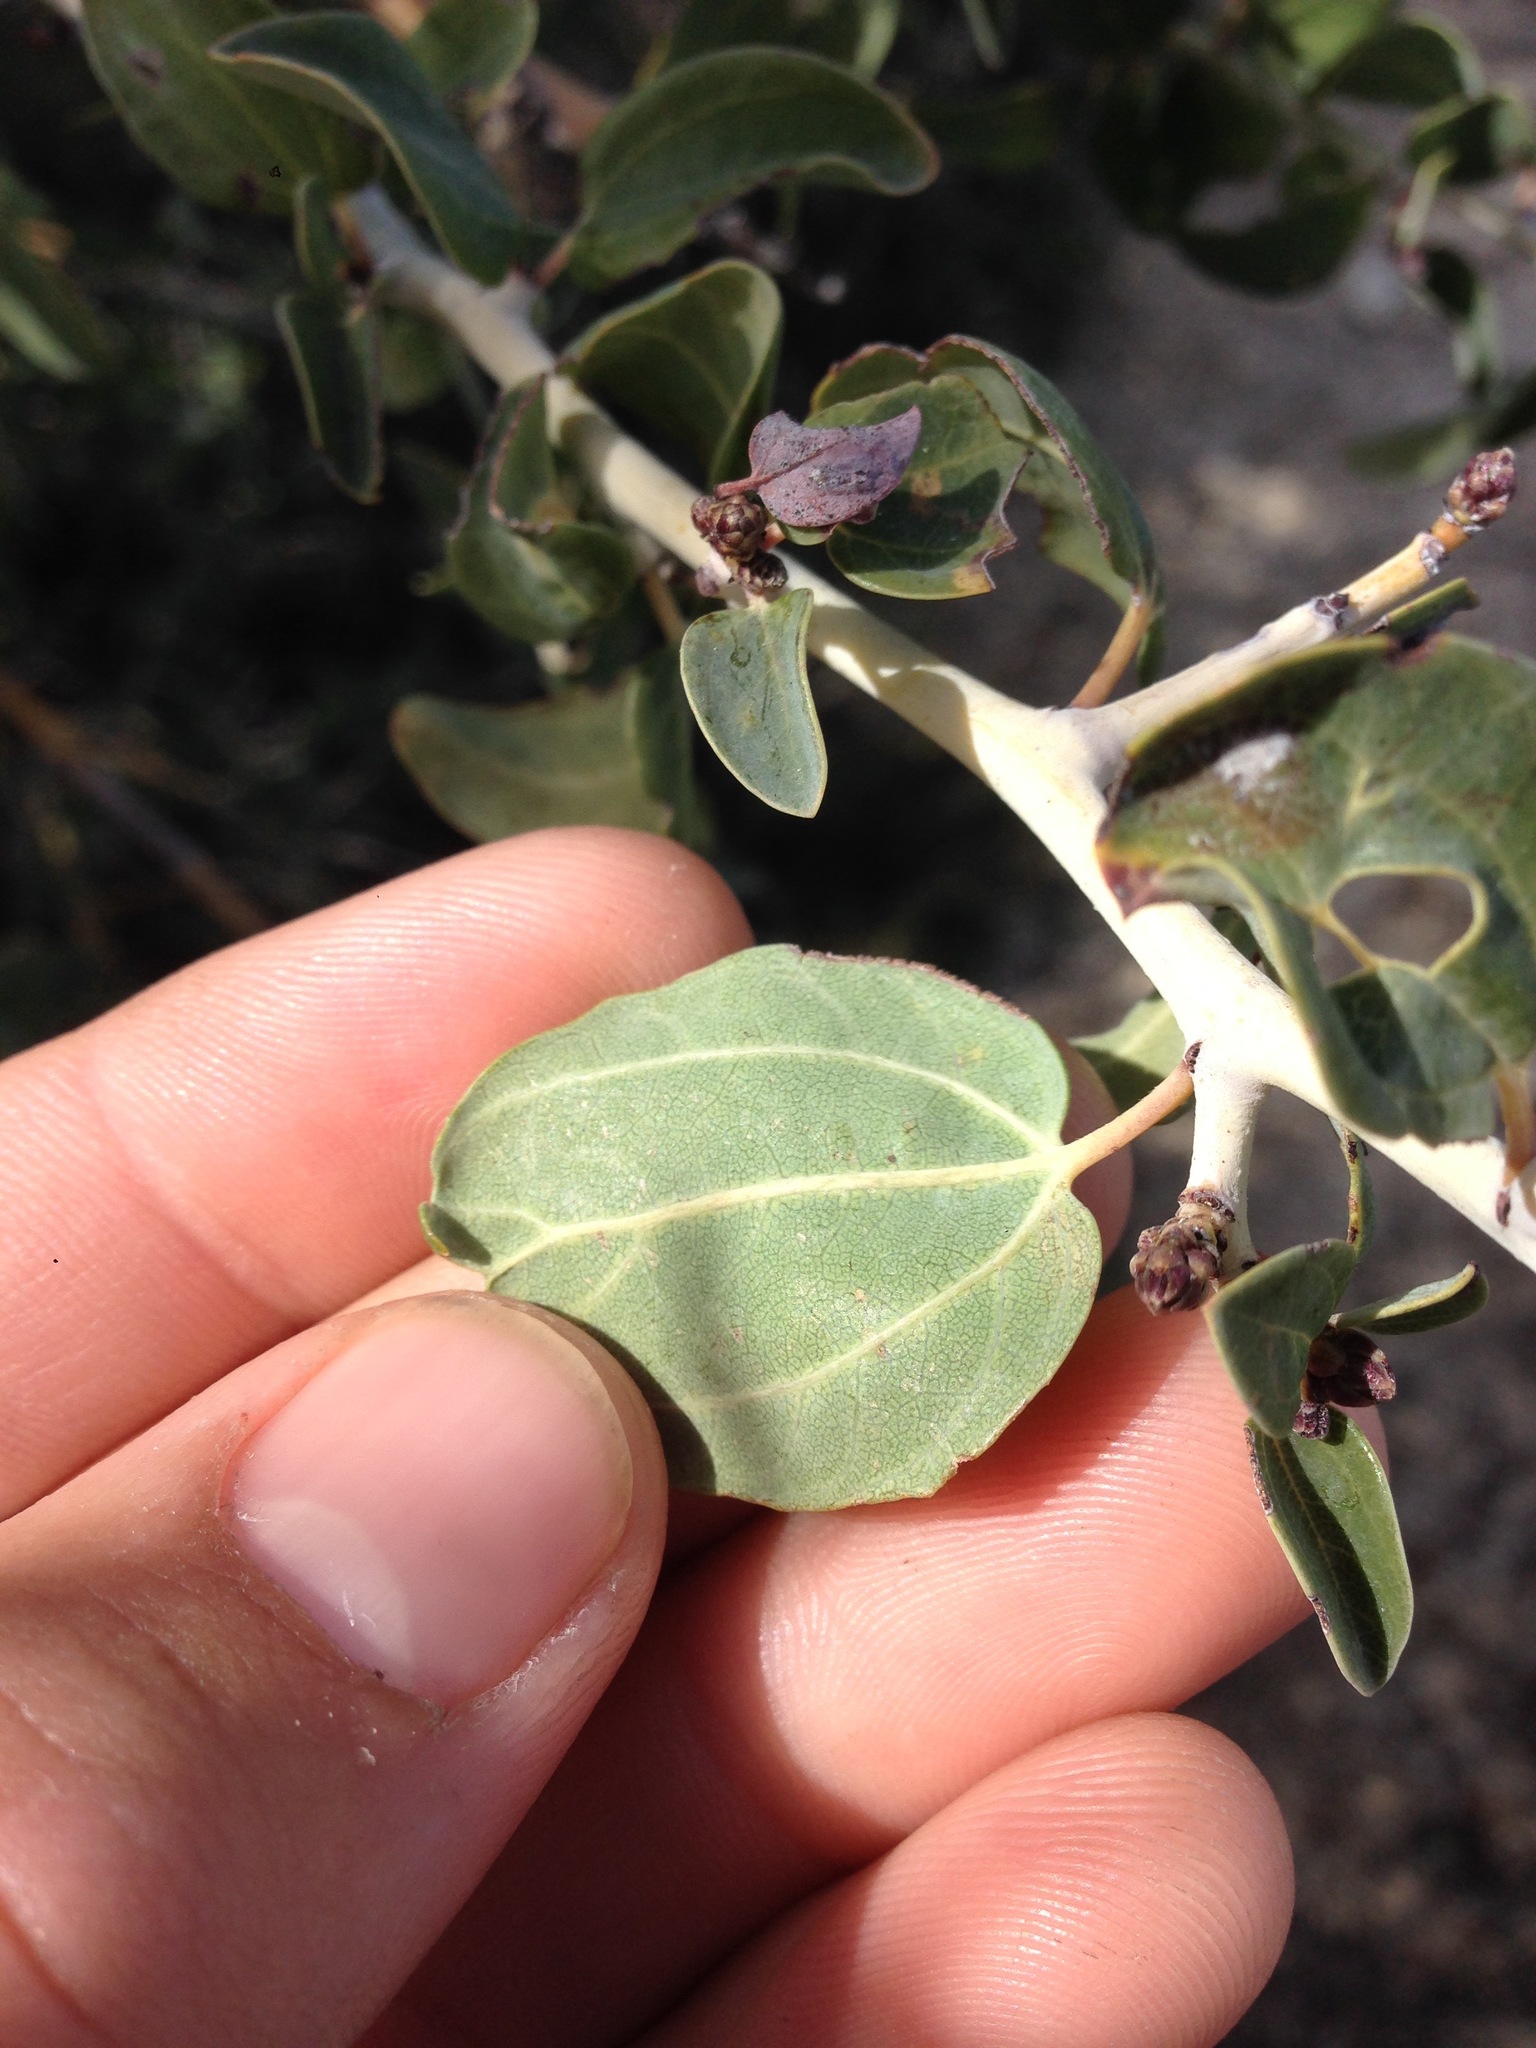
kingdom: Plantae
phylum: Tracheophyta
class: Magnoliopsida
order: Rosales
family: Rhamnaceae
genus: Ceanothus
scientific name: Ceanothus leucodermis
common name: Chaparral whitethorn
